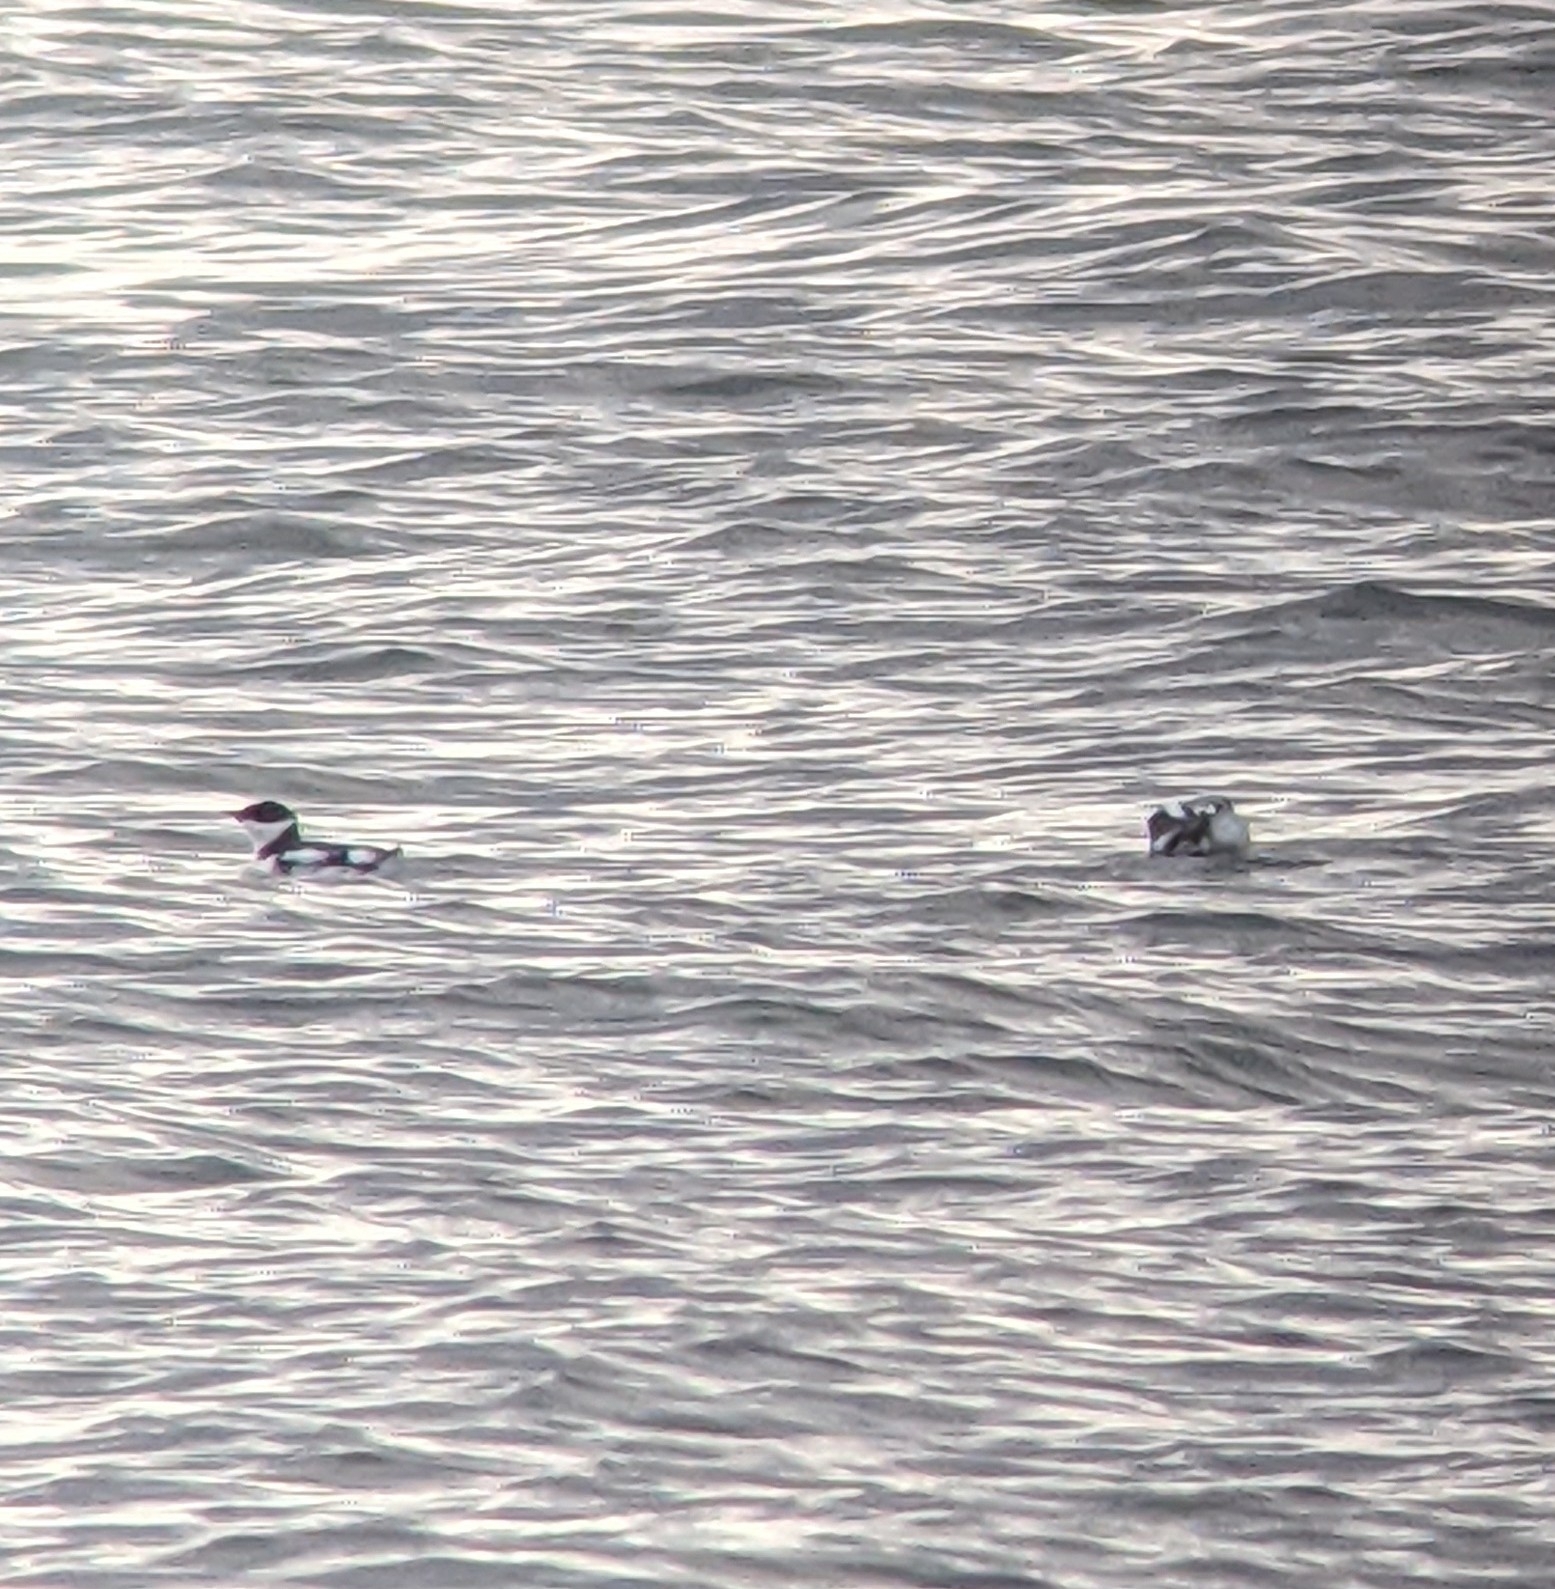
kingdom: Animalia
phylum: Chordata
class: Aves
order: Charadriiformes
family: Alcidae
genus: Brachyramphus
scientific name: Brachyramphus marmoratus
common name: Marbled murrelet
